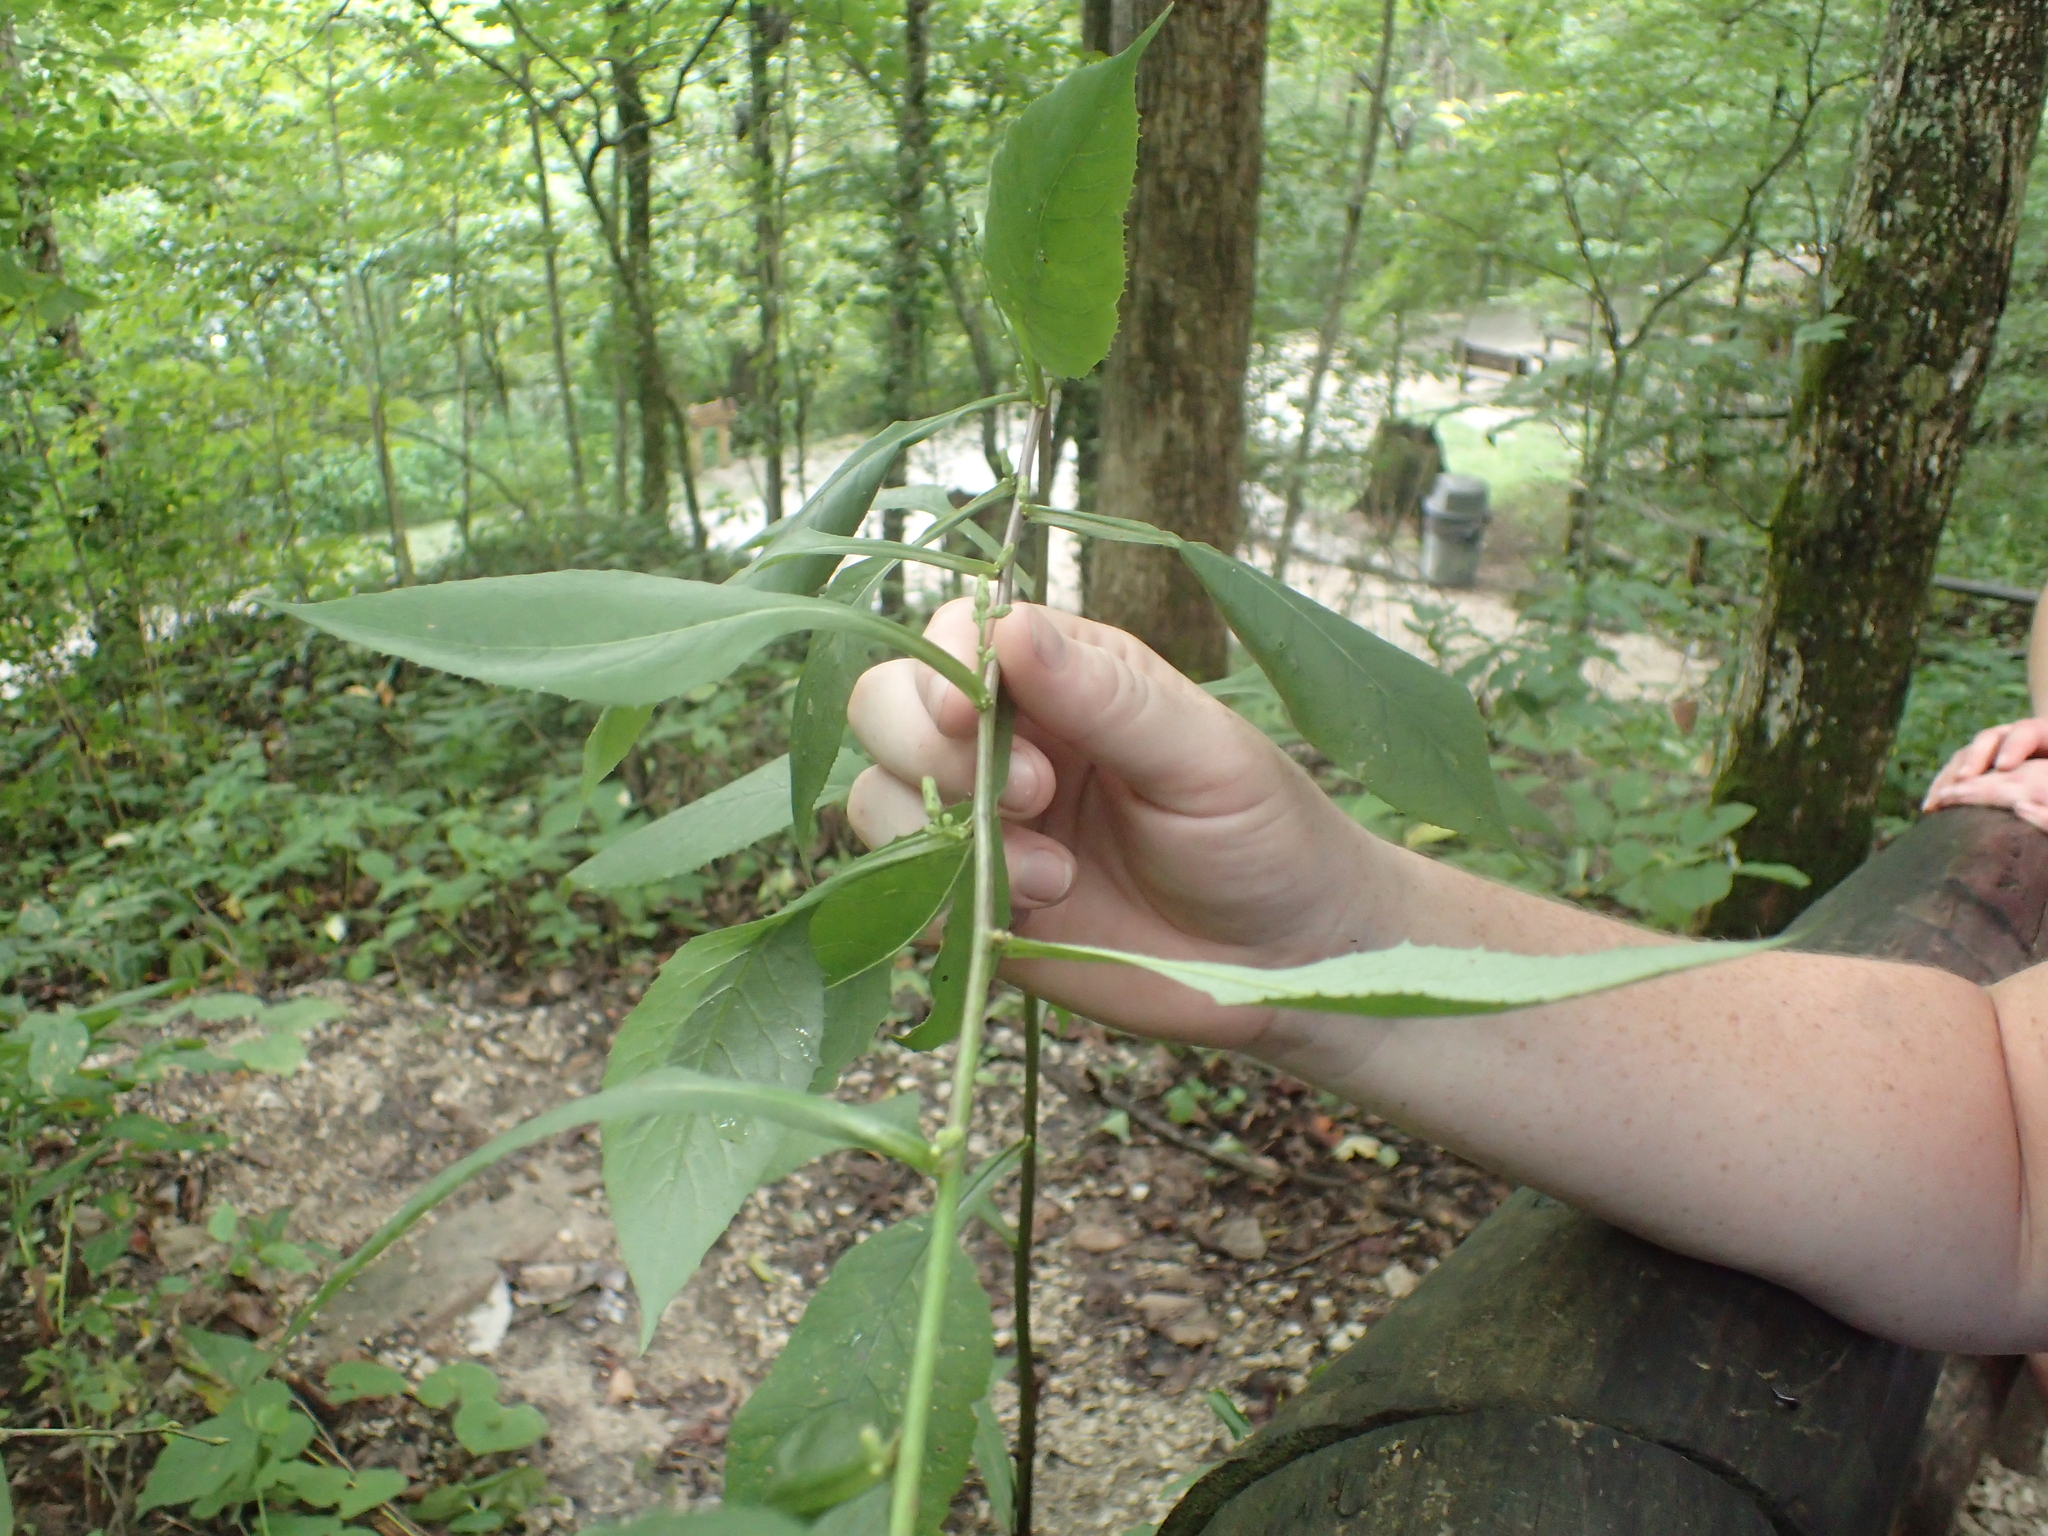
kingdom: Plantae
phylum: Tracheophyta
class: Magnoliopsida
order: Asterales
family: Asteraceae
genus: Lactuca
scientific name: Lactuca floridana
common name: Woodland lettuce
